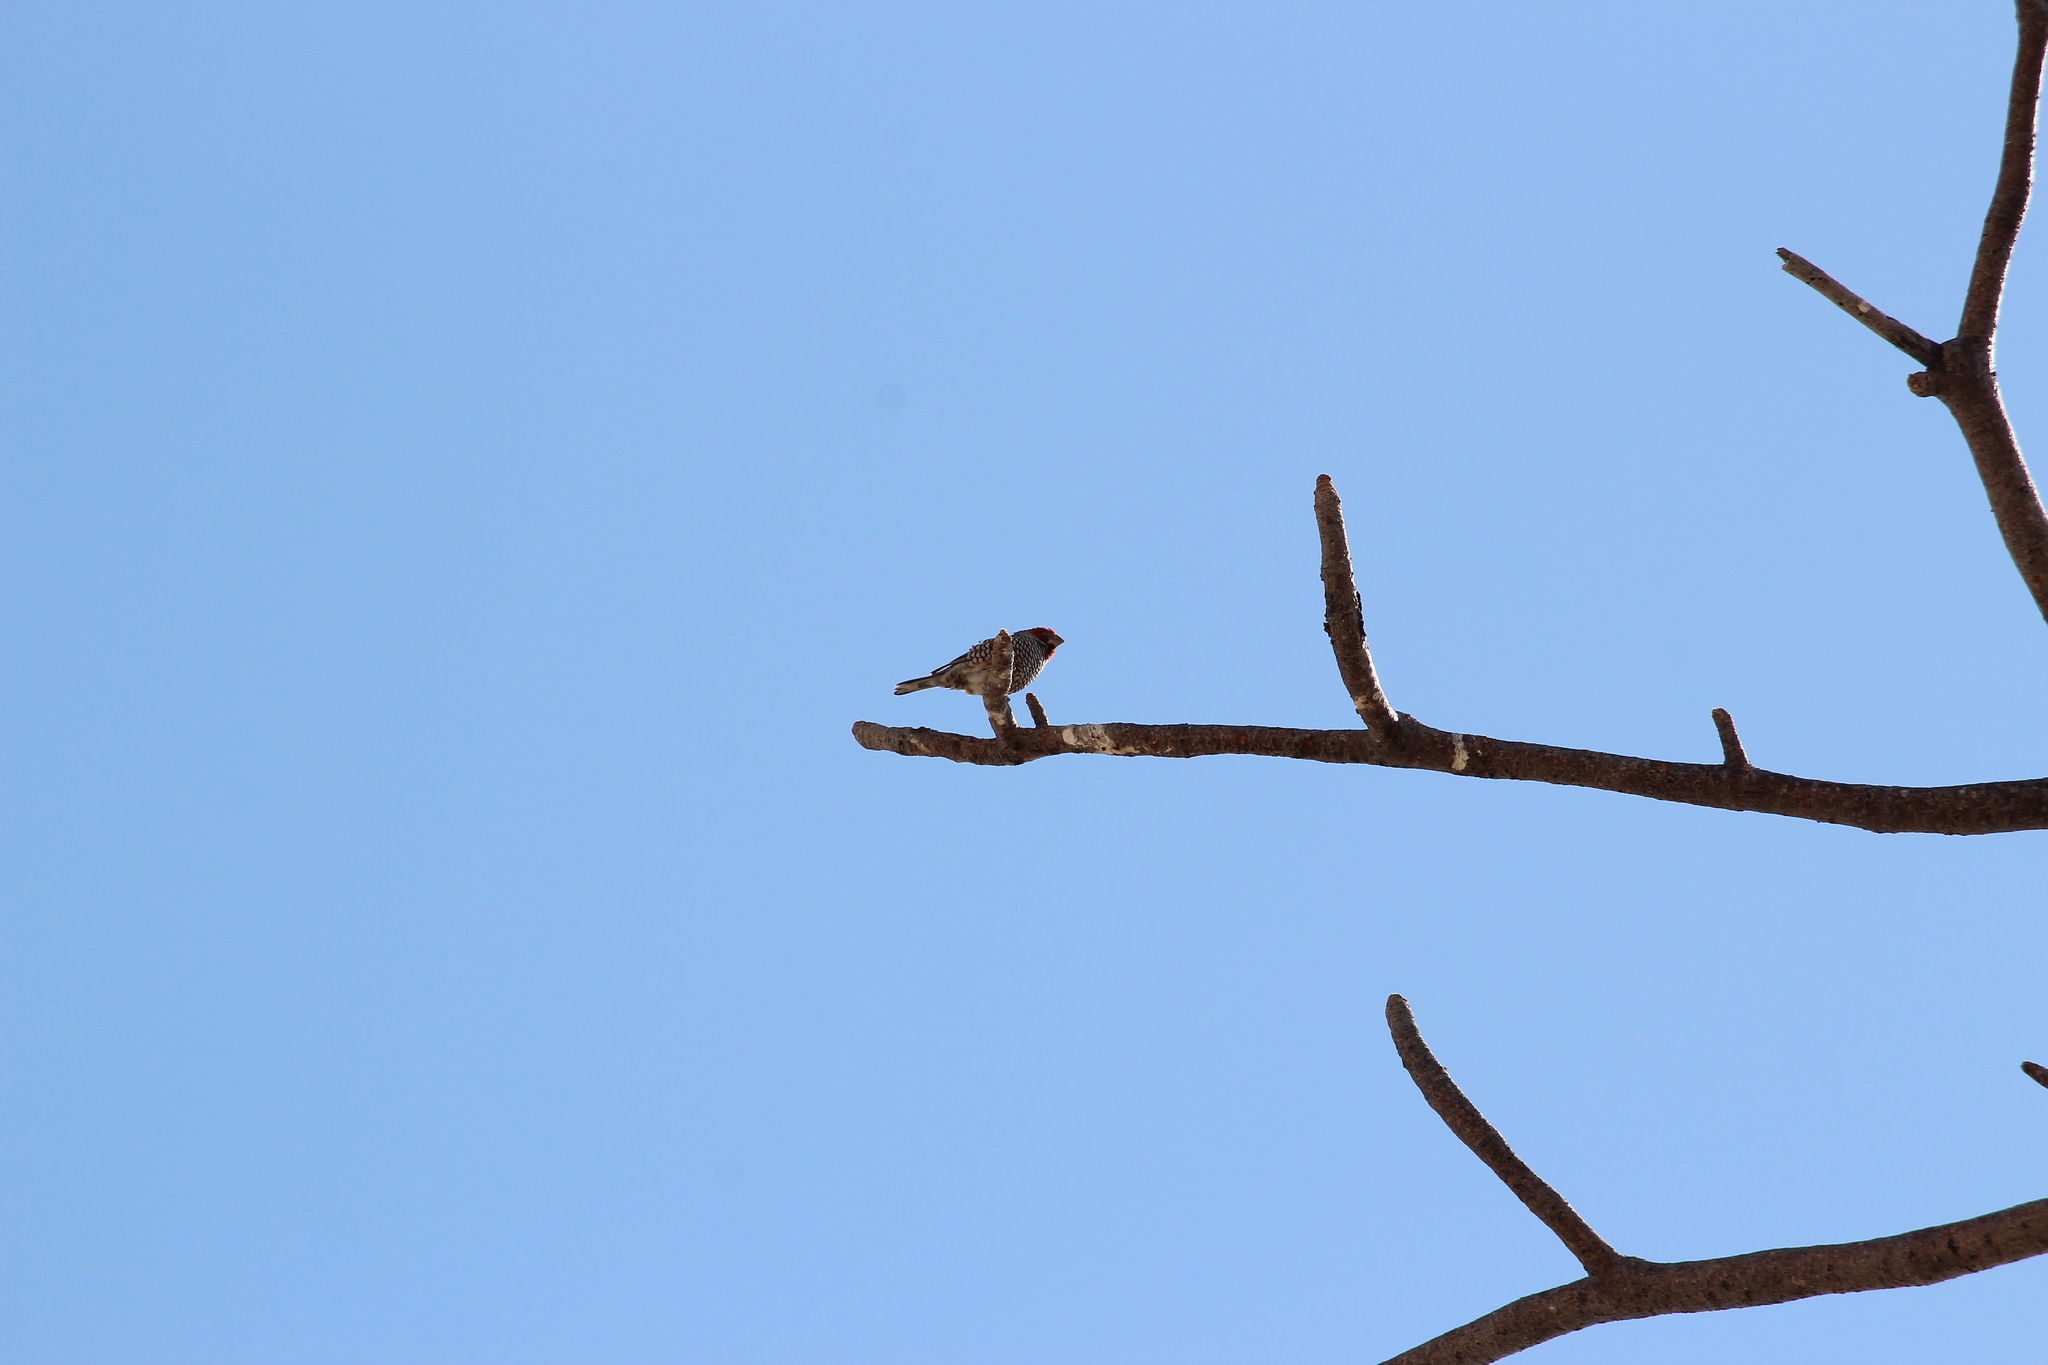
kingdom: Animalia
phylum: Chordata
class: Aves
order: Passeriformes
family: Estrildidae
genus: Amadina
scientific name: Amadina erythrocephala
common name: Red-headed finch
